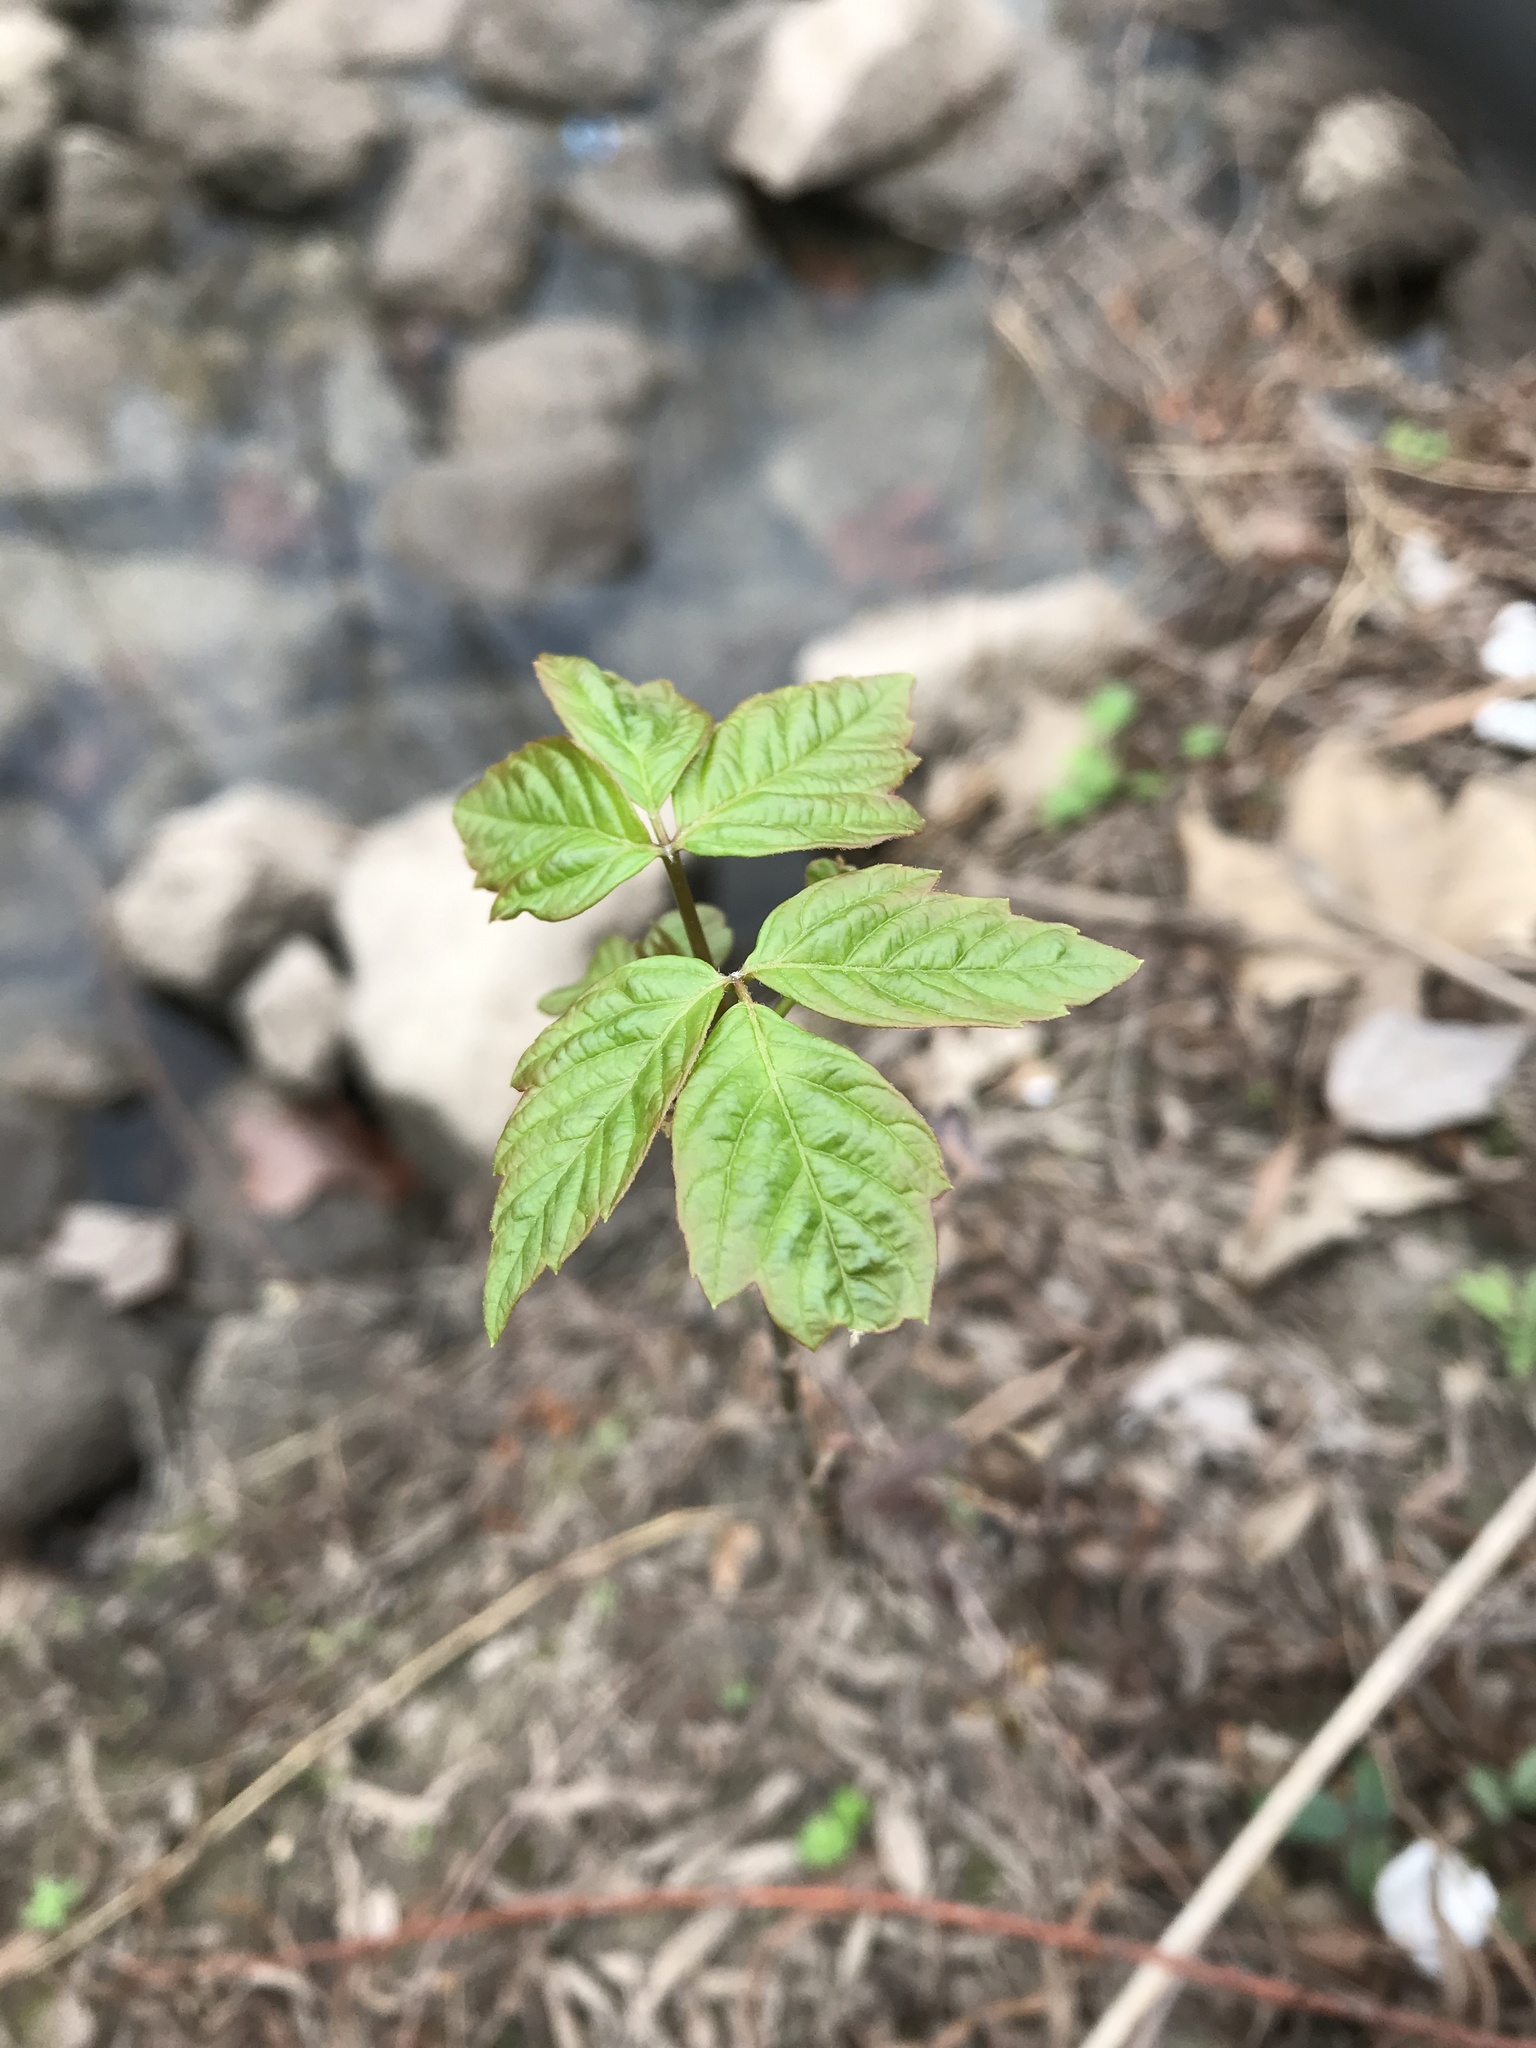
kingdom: Plantae
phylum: Tracheophyta
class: Magnoliopsida
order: Sapindales
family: Anacardiaceae
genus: Toxicodendron
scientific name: Toxicodendron radicans
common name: Poison ivy
